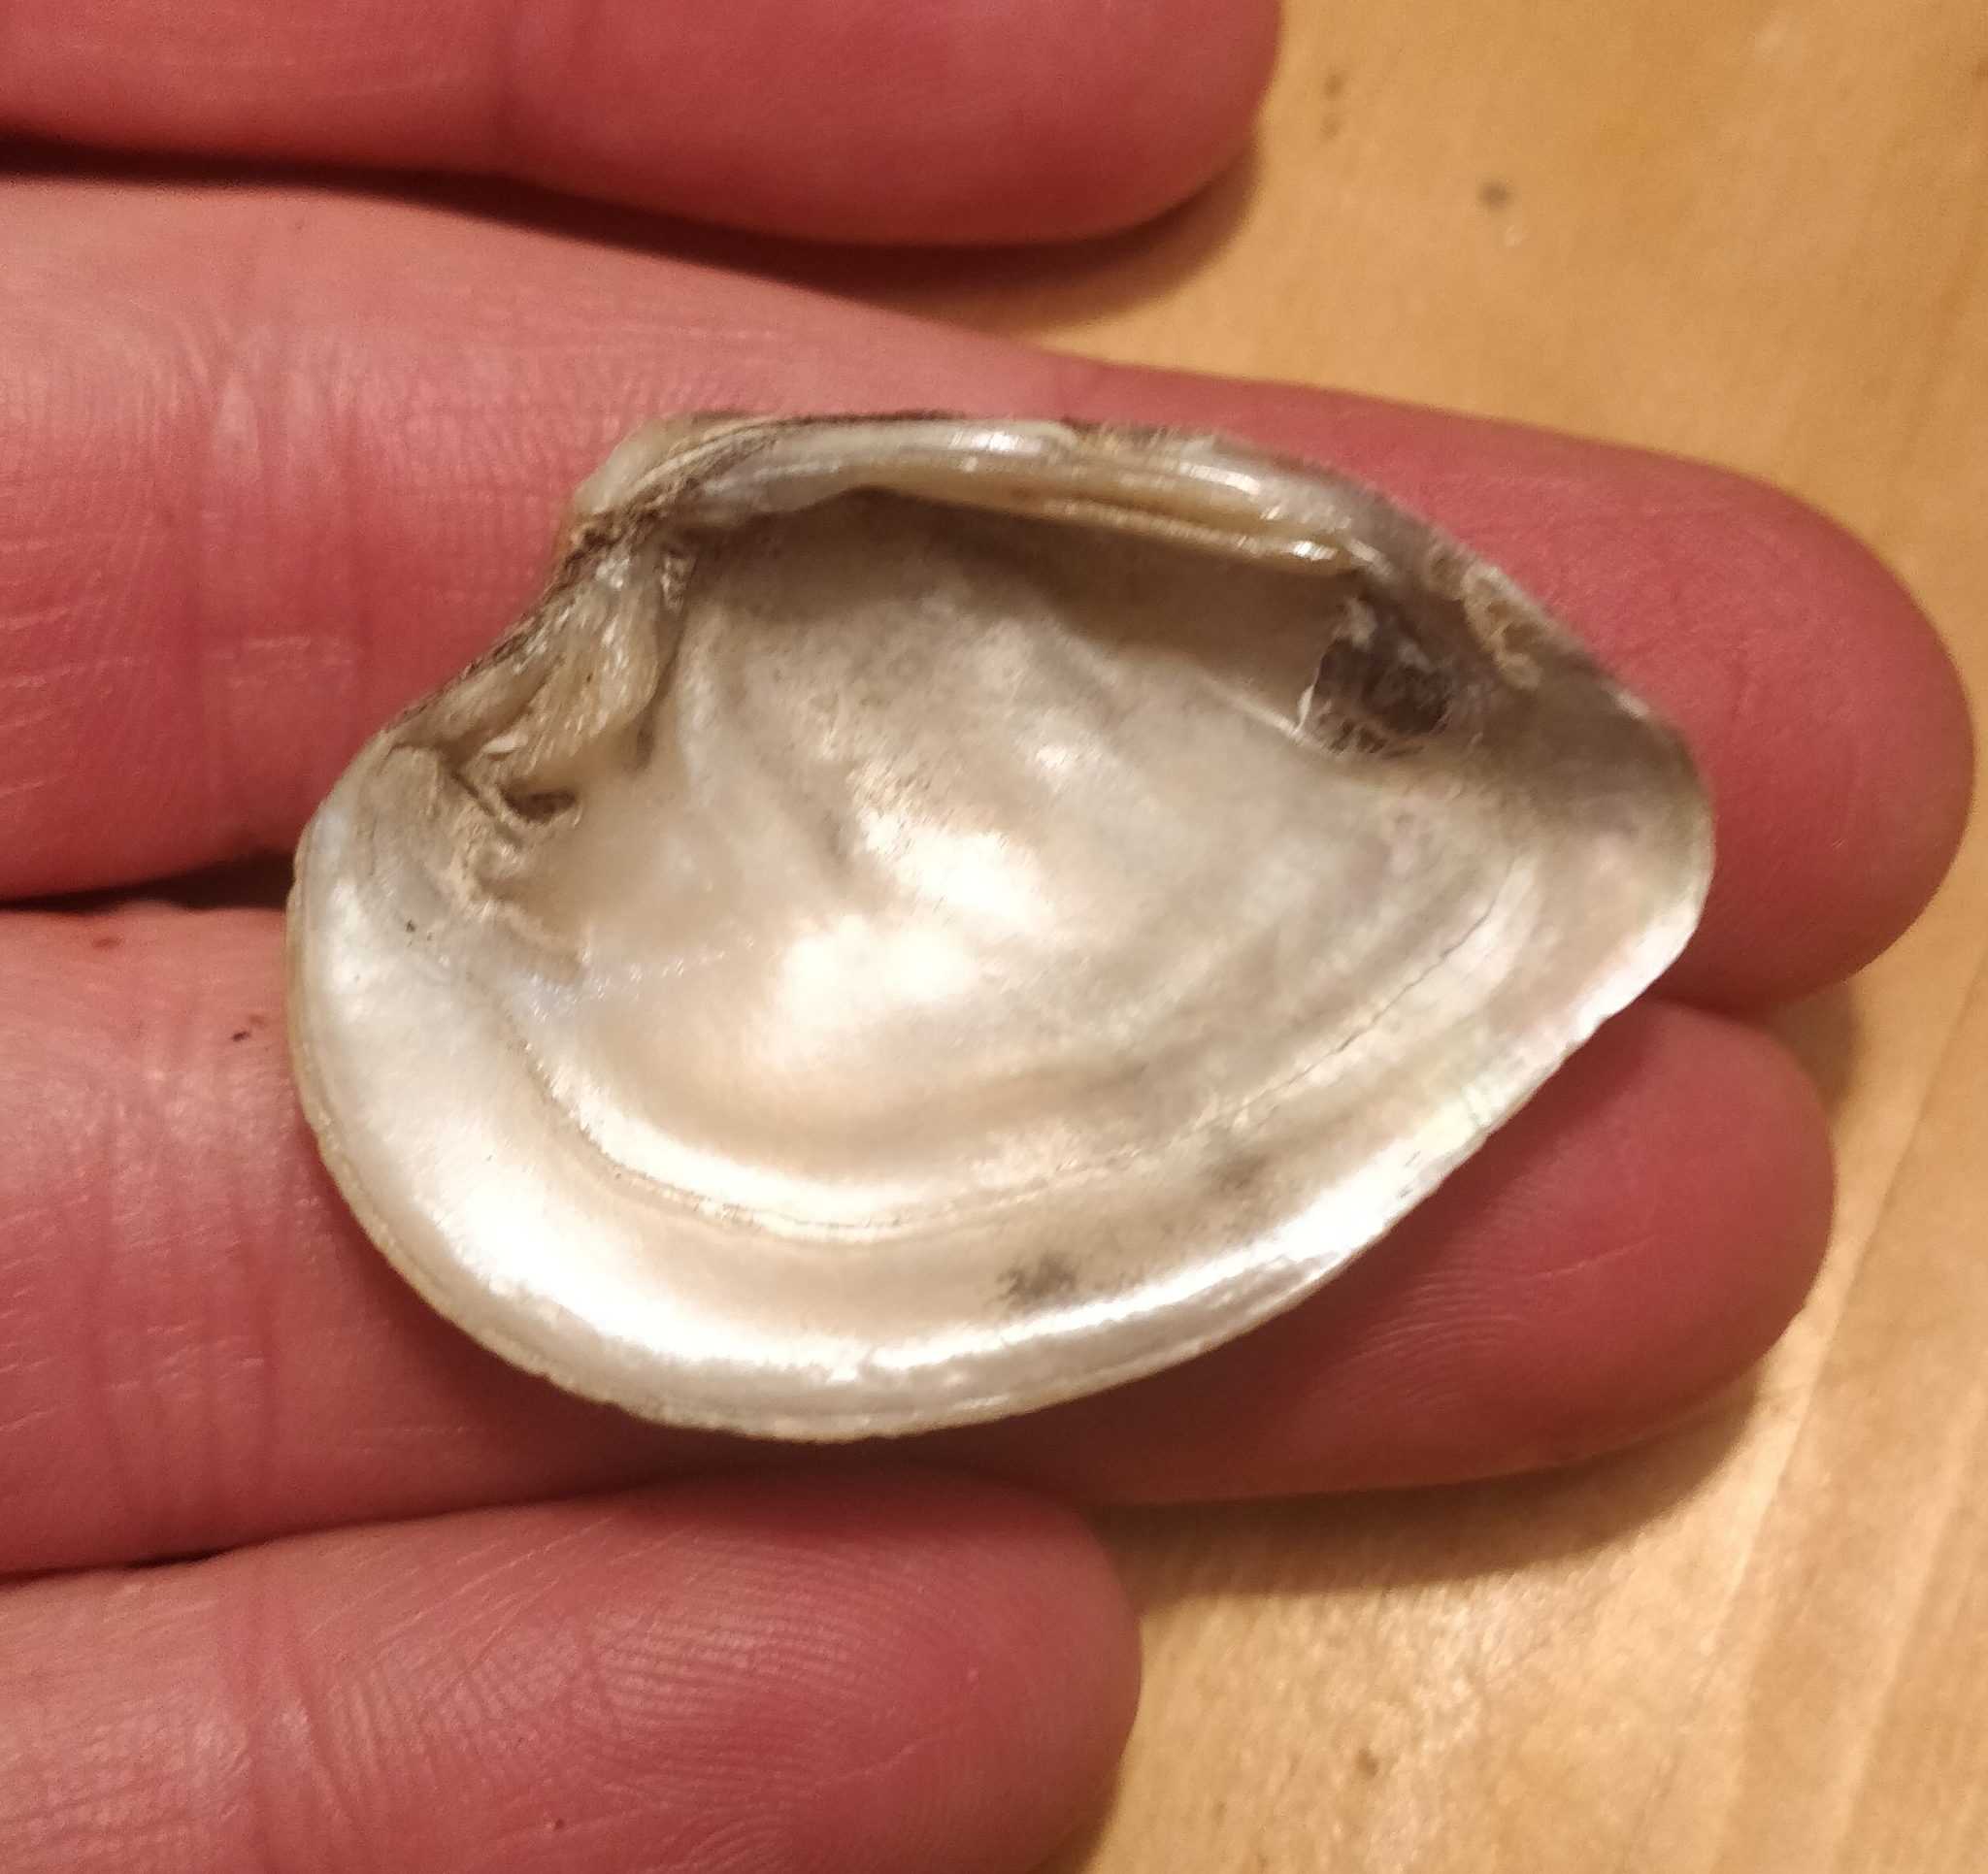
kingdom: Animalia
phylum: Mollusca
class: Bivalvia
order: Unionida
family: Unionidae
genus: Truncilla
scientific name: Truncilla truncata
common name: Deertoe
